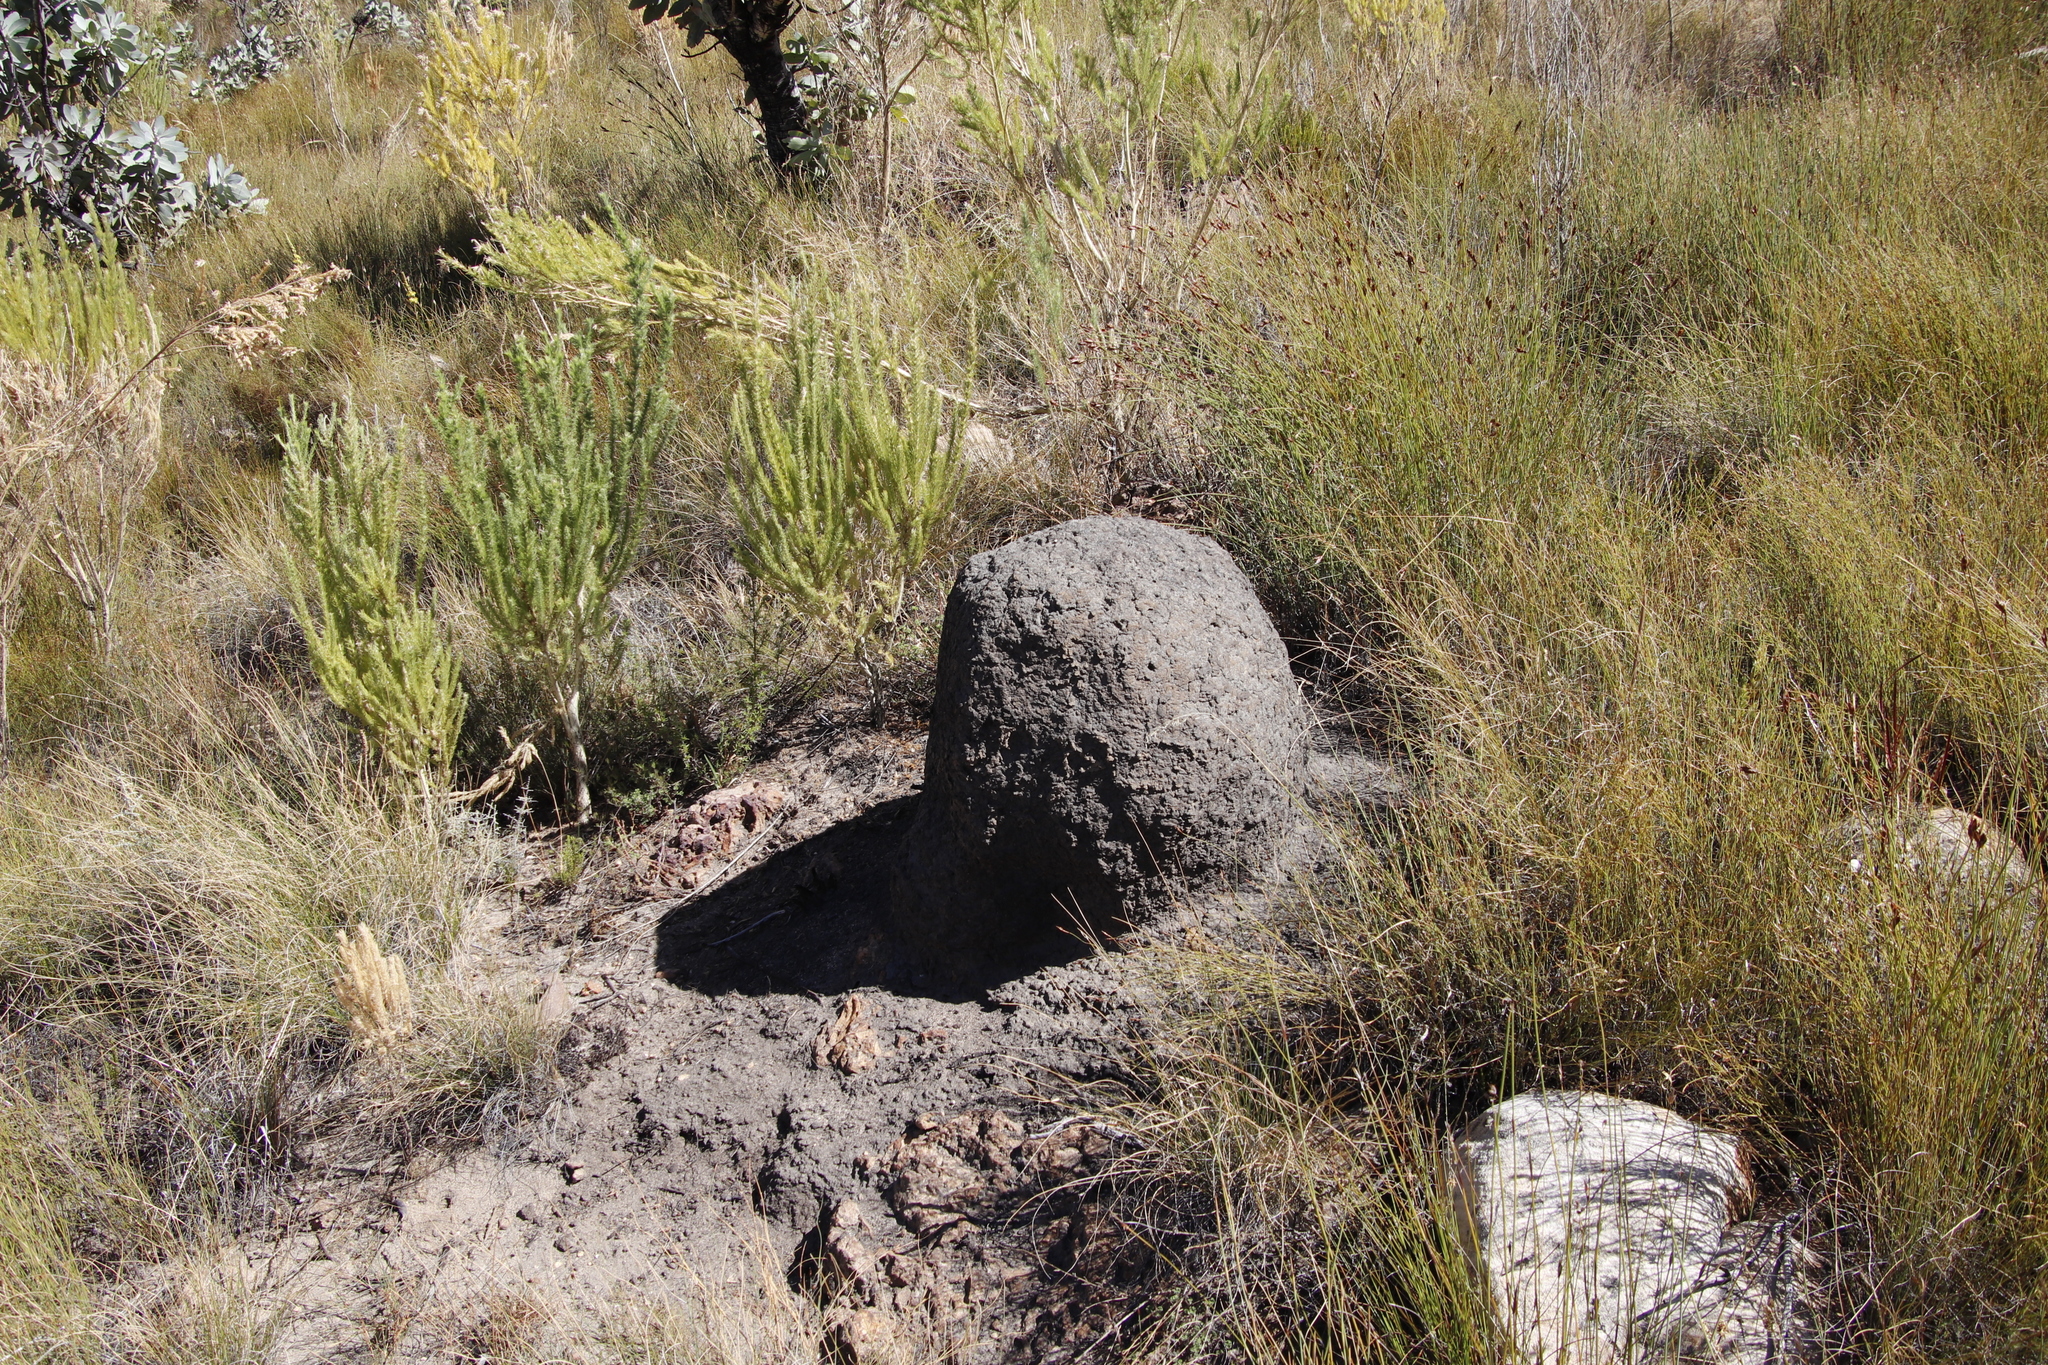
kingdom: Animalia
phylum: Arthropoda
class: Insecta
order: Blattodea
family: Termitidae
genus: Amitermes
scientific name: Amitermes hastatus
